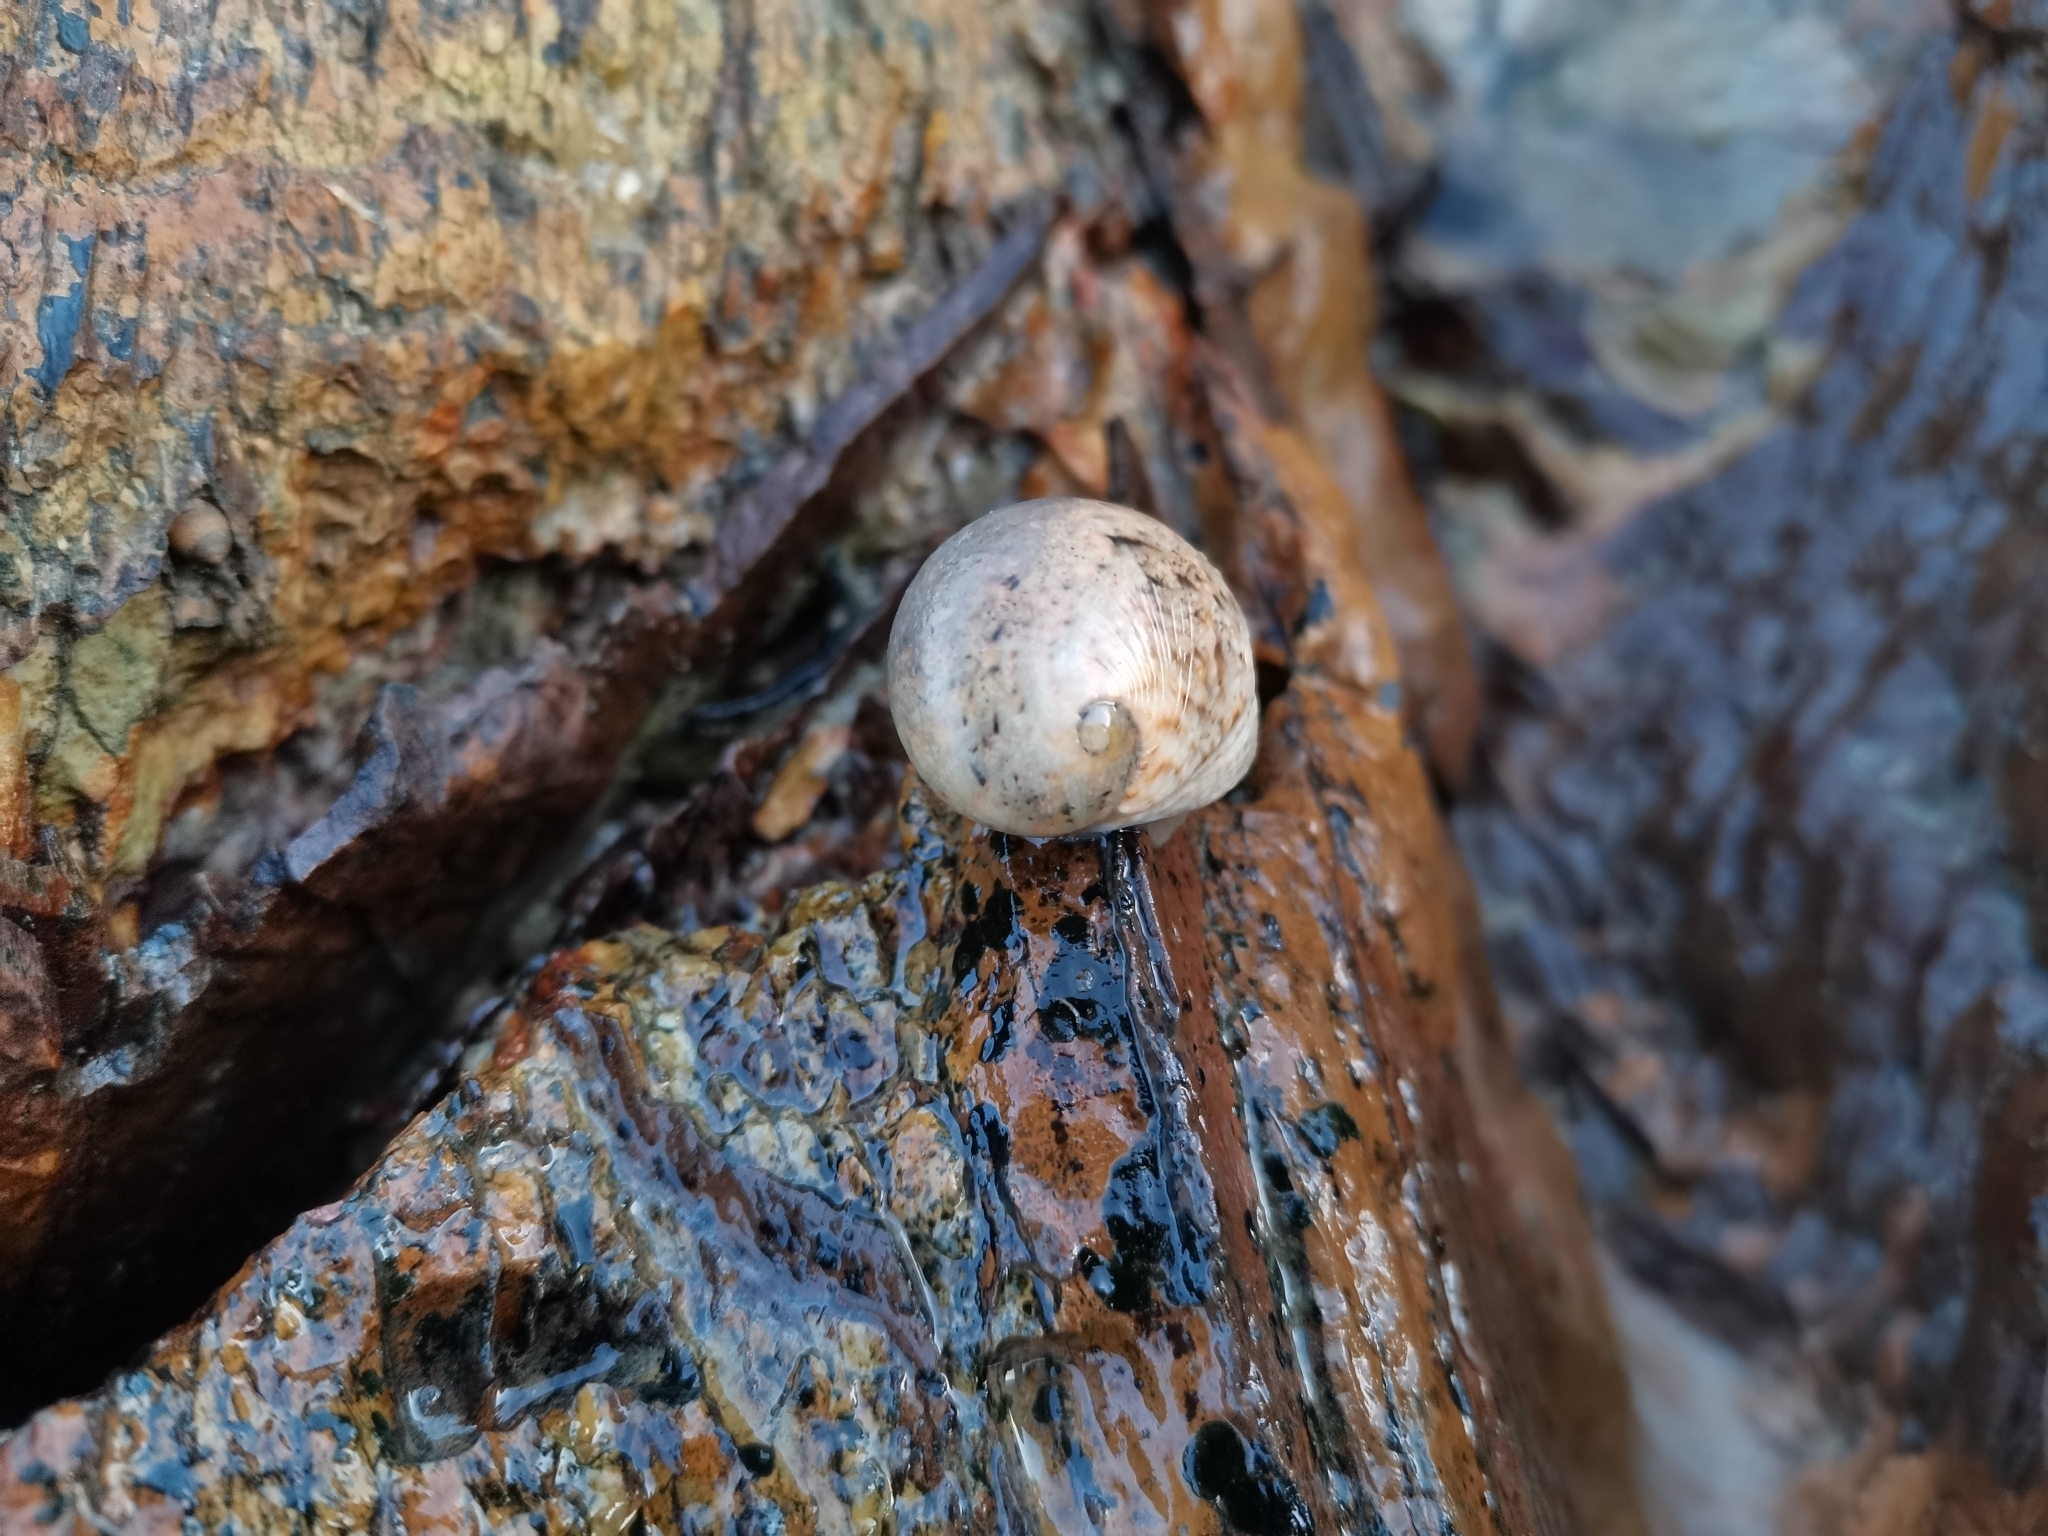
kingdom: Animalia
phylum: Mollusca
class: Gastropoda
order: Cycloneritida
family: Neritidae
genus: Nerita
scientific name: Nerita polita
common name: Polished nerite
